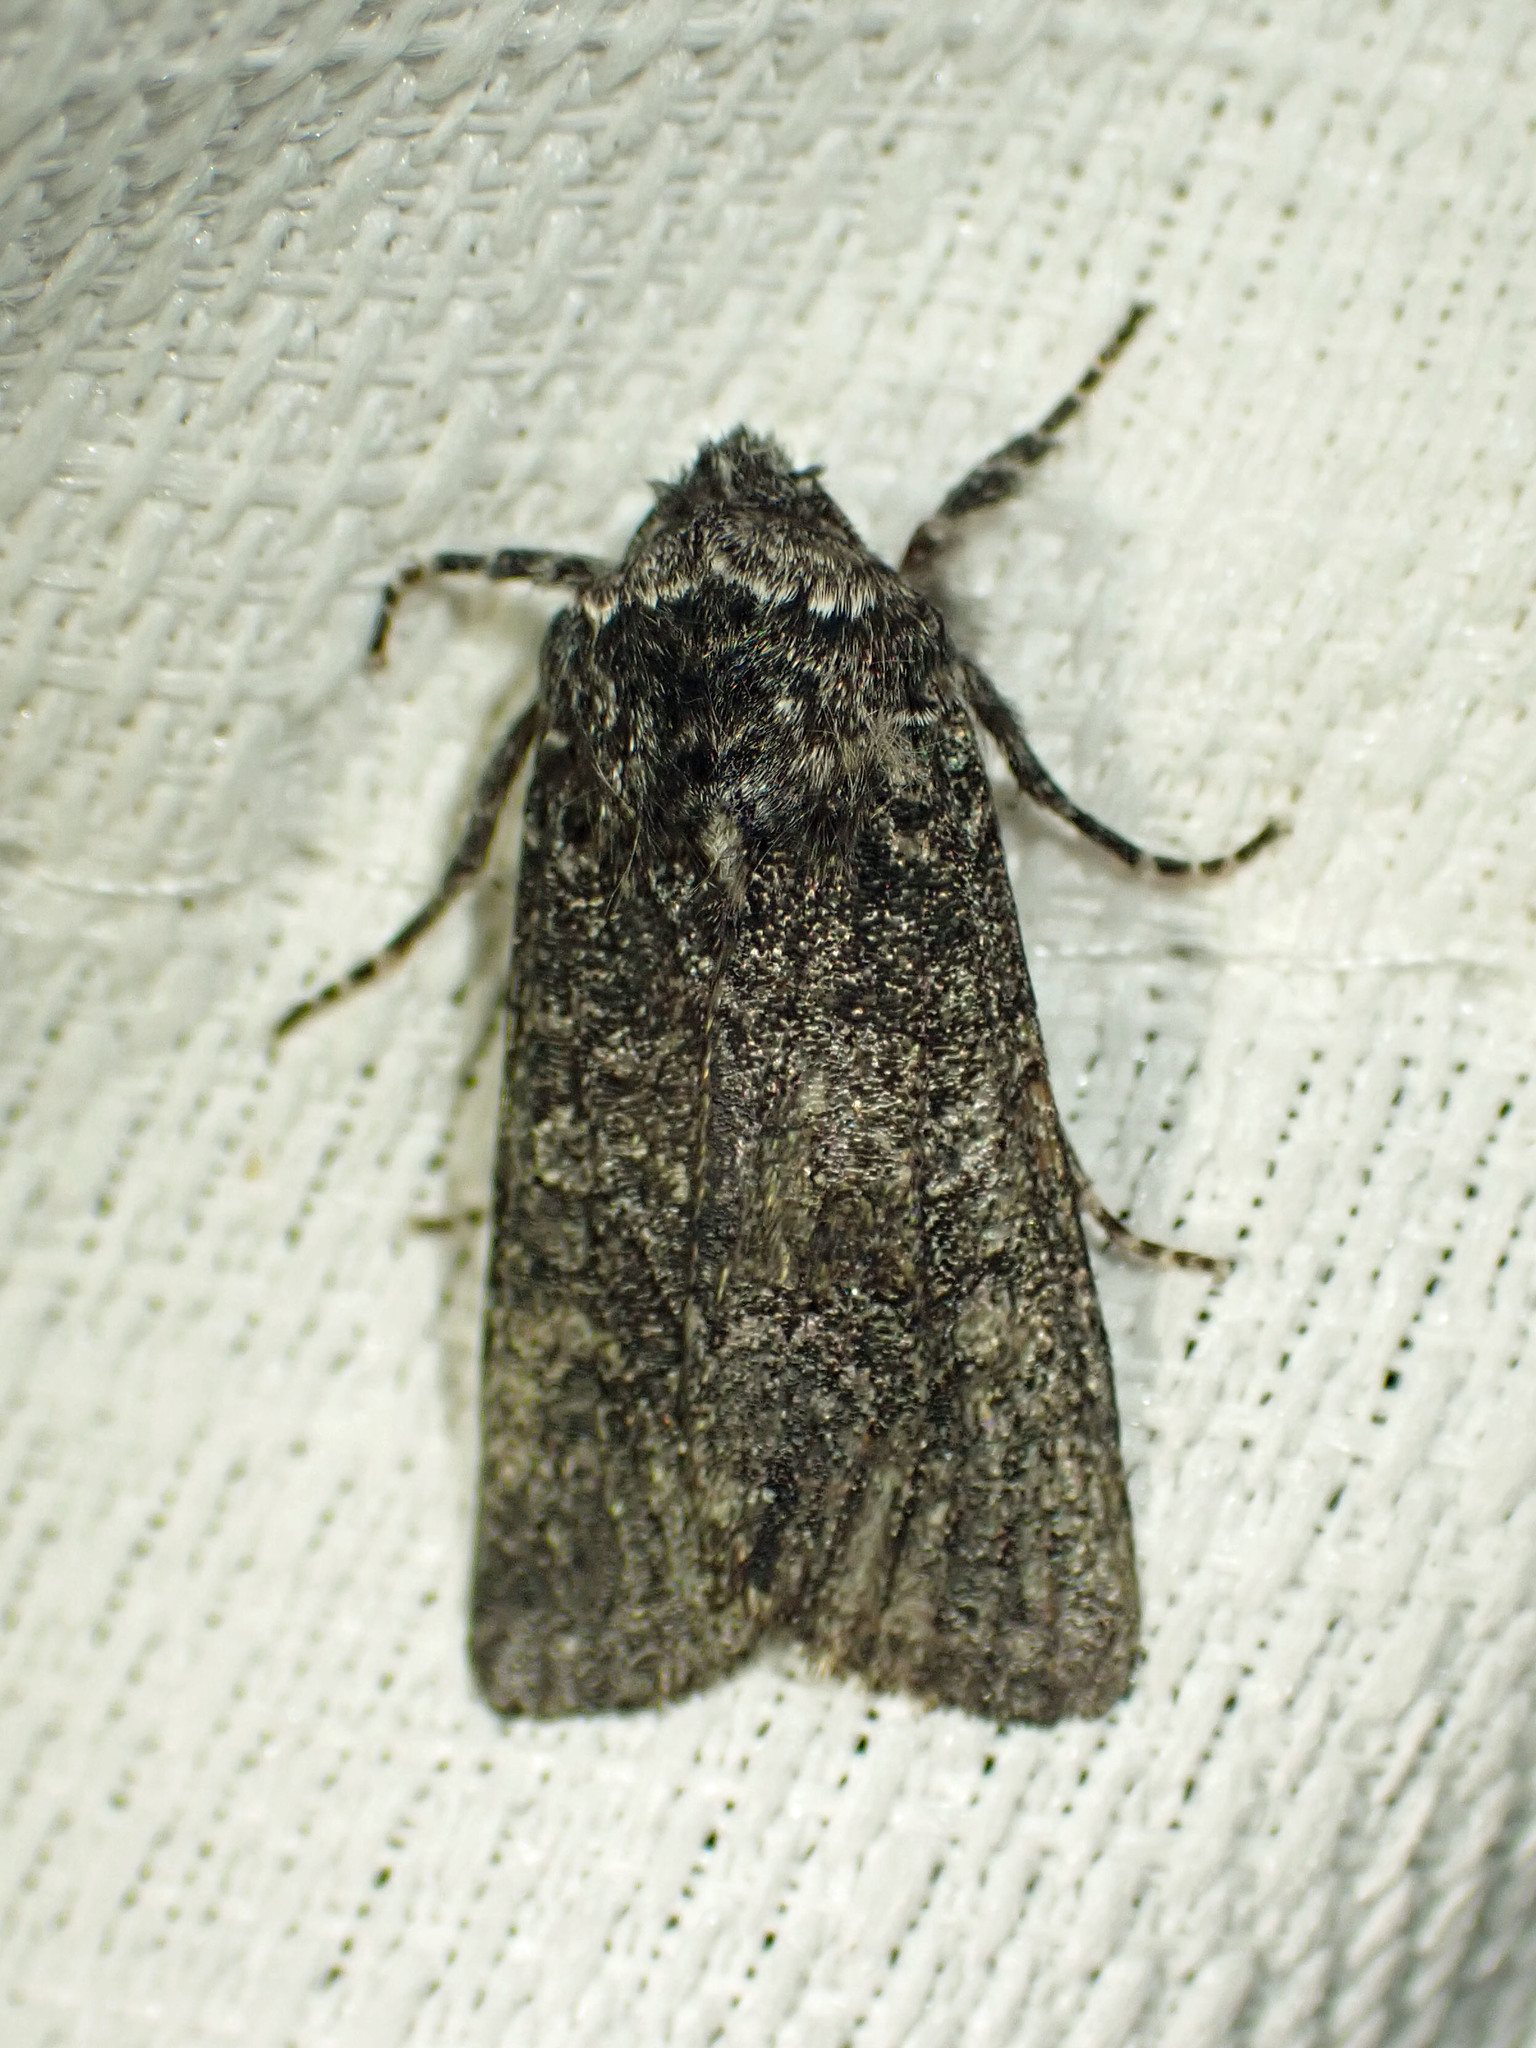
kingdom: Animalia
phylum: Arthropoda
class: Insecta
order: Lepidoptera
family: Noctuidae
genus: Egira
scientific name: Egira dolosa
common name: Lined black aspen cat.
